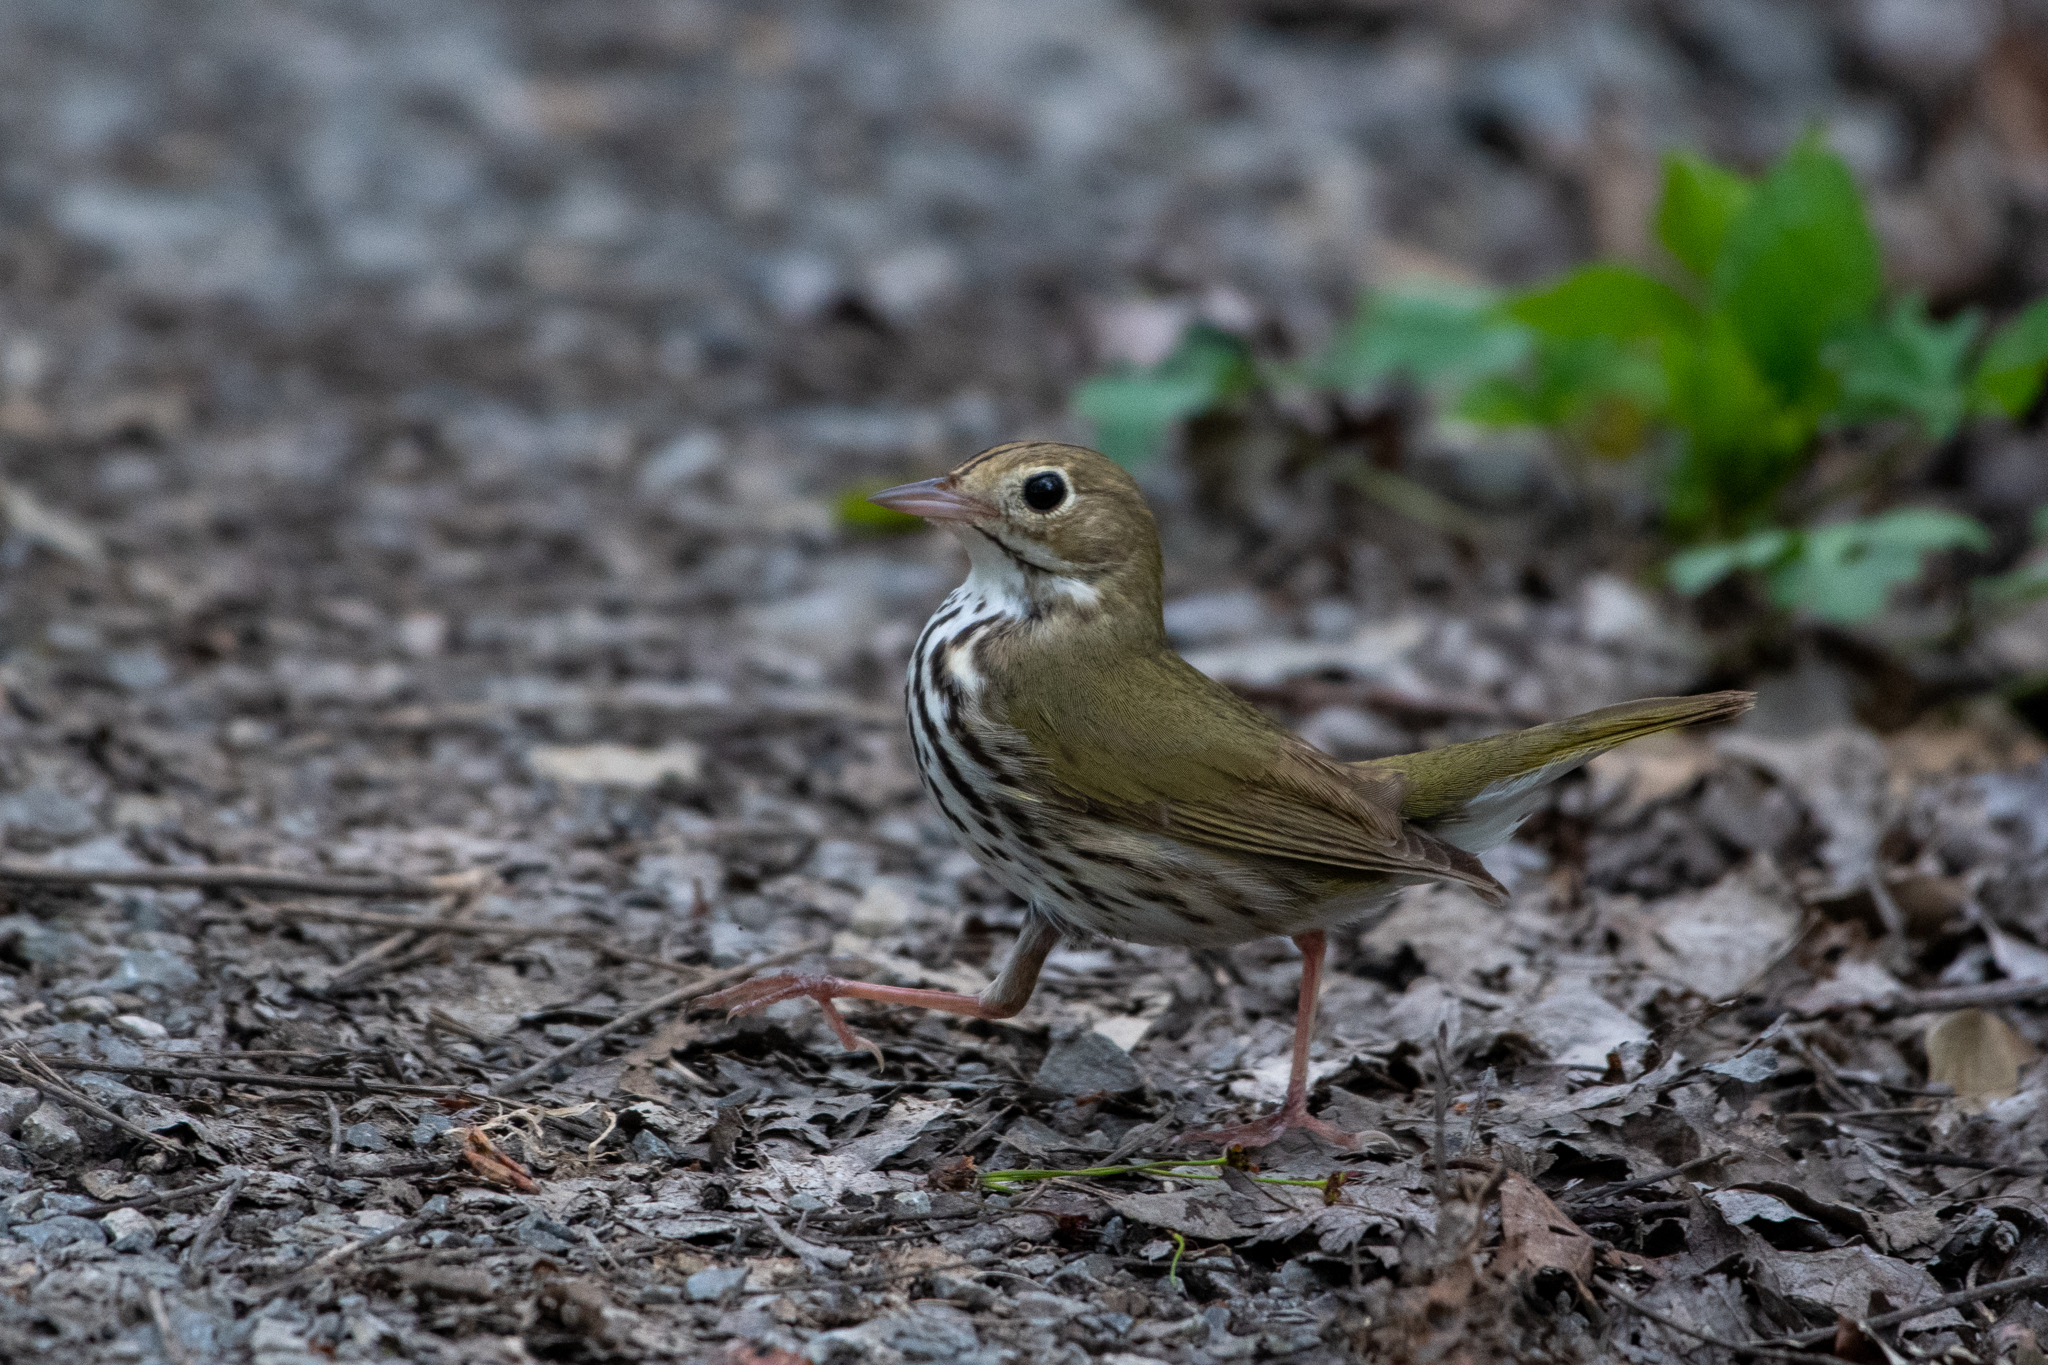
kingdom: Animalia
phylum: Chordata
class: Aves
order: Passeriformes
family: Parulidae
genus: Seiurus
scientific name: Seiurus aurocapilla
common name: Ovenbird
